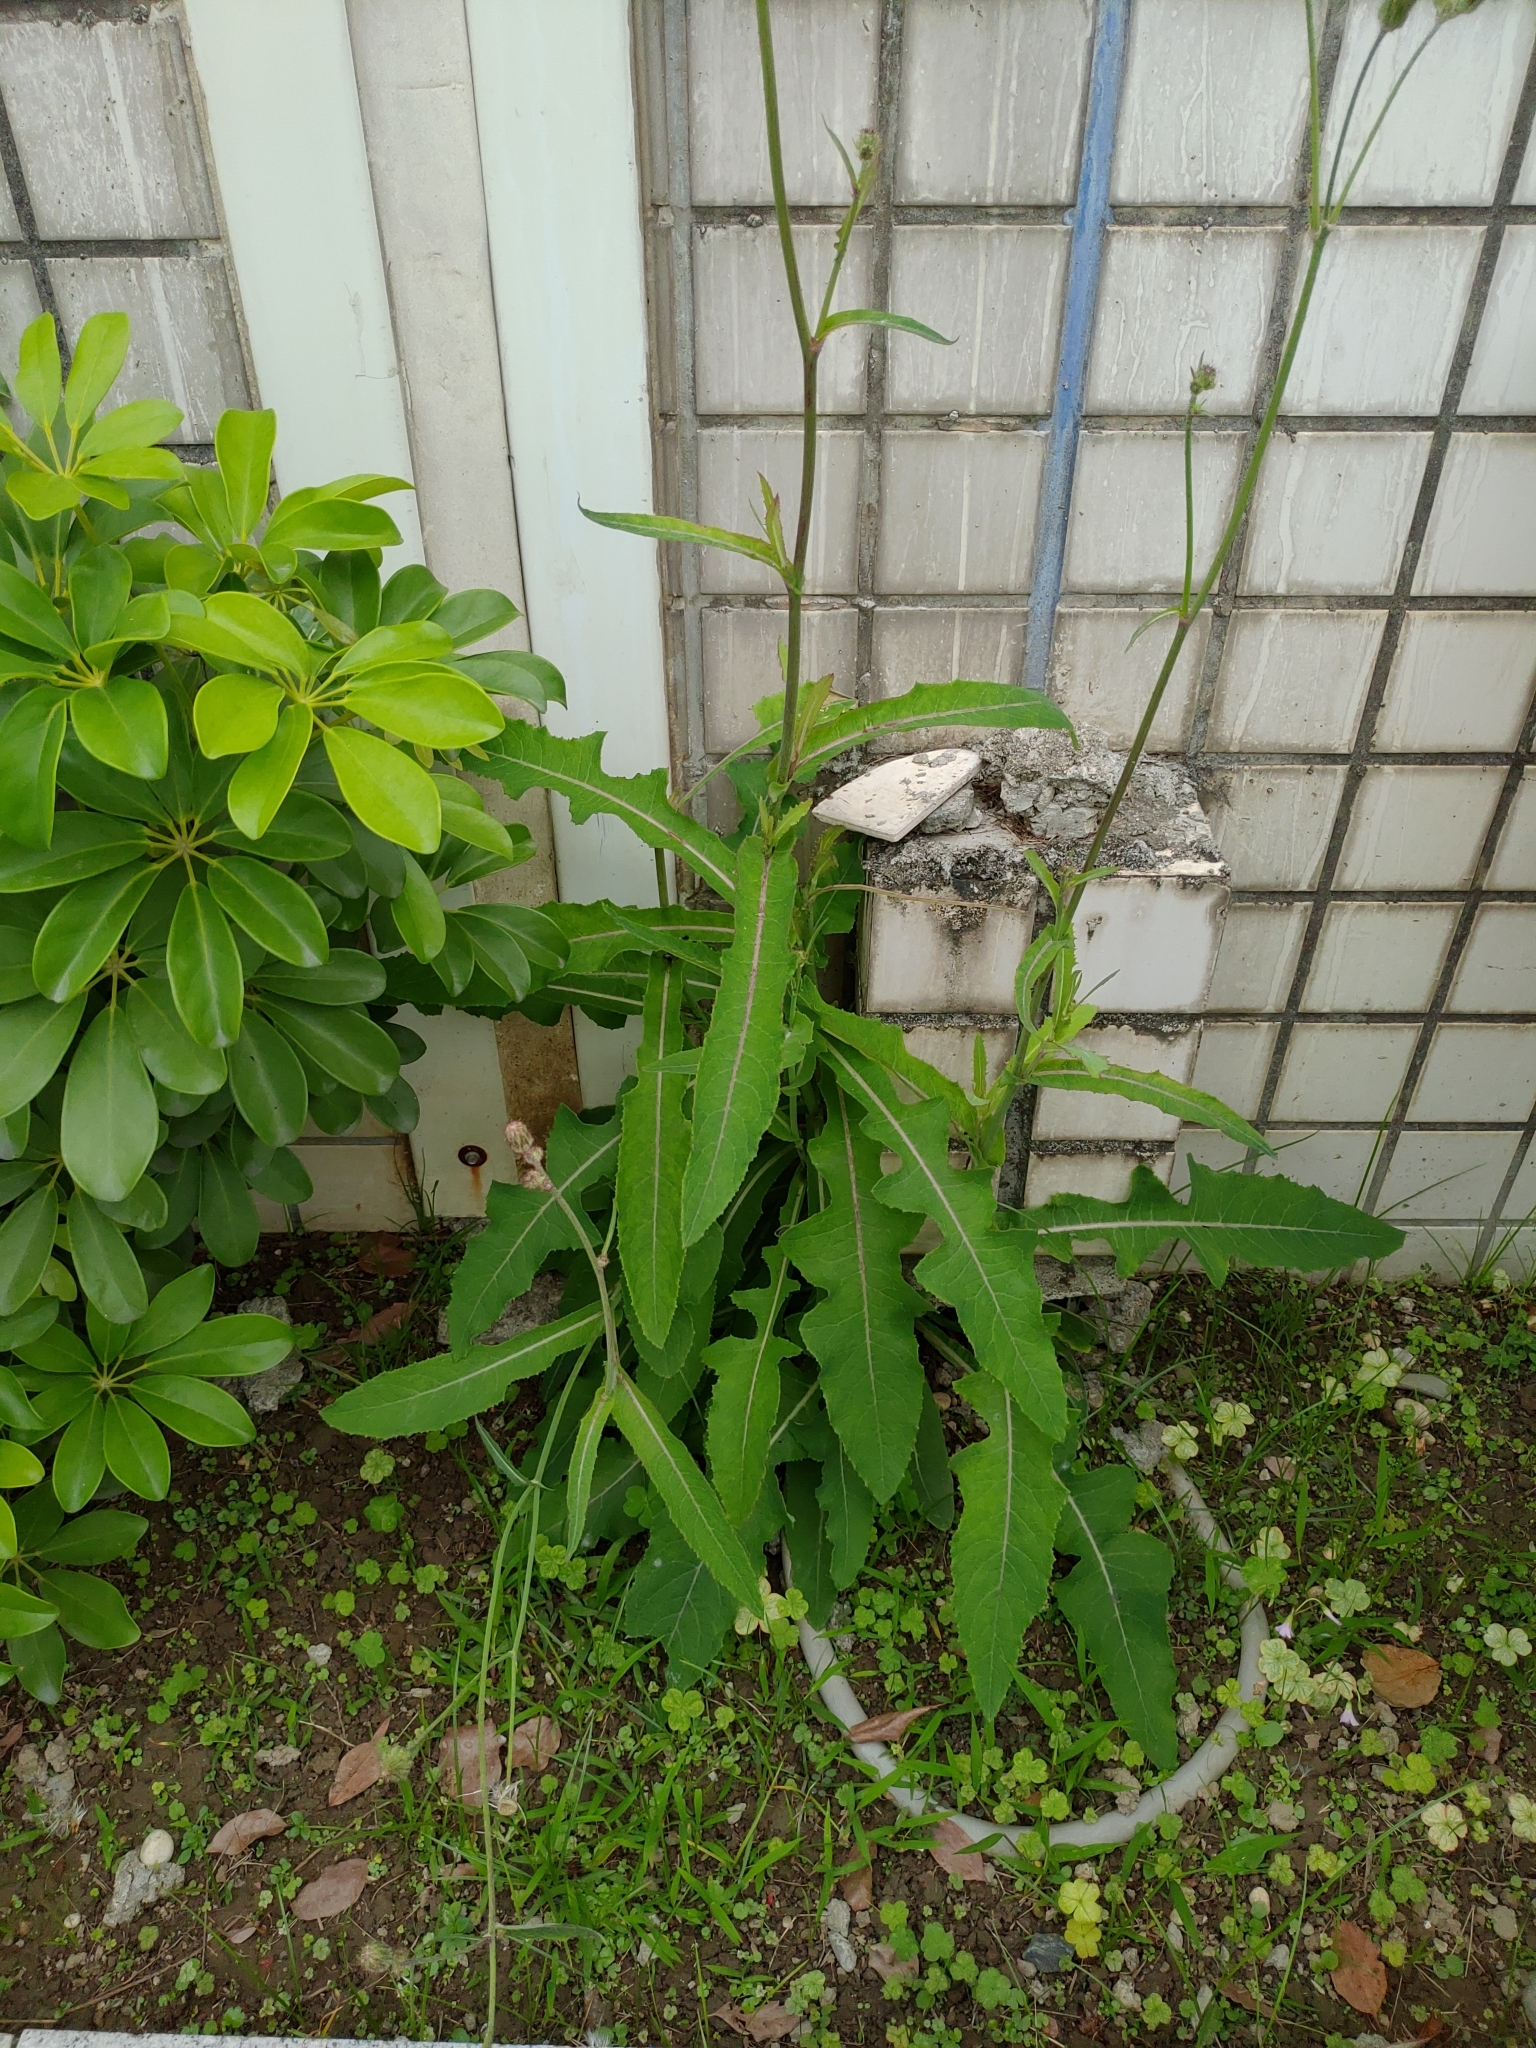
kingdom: Plantae
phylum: Tracheophyta
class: Magnoliopsida
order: Asterales
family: Asteraceae
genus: Sonchus
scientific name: Sonchus arvensis
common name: Perennial sow-thistle
